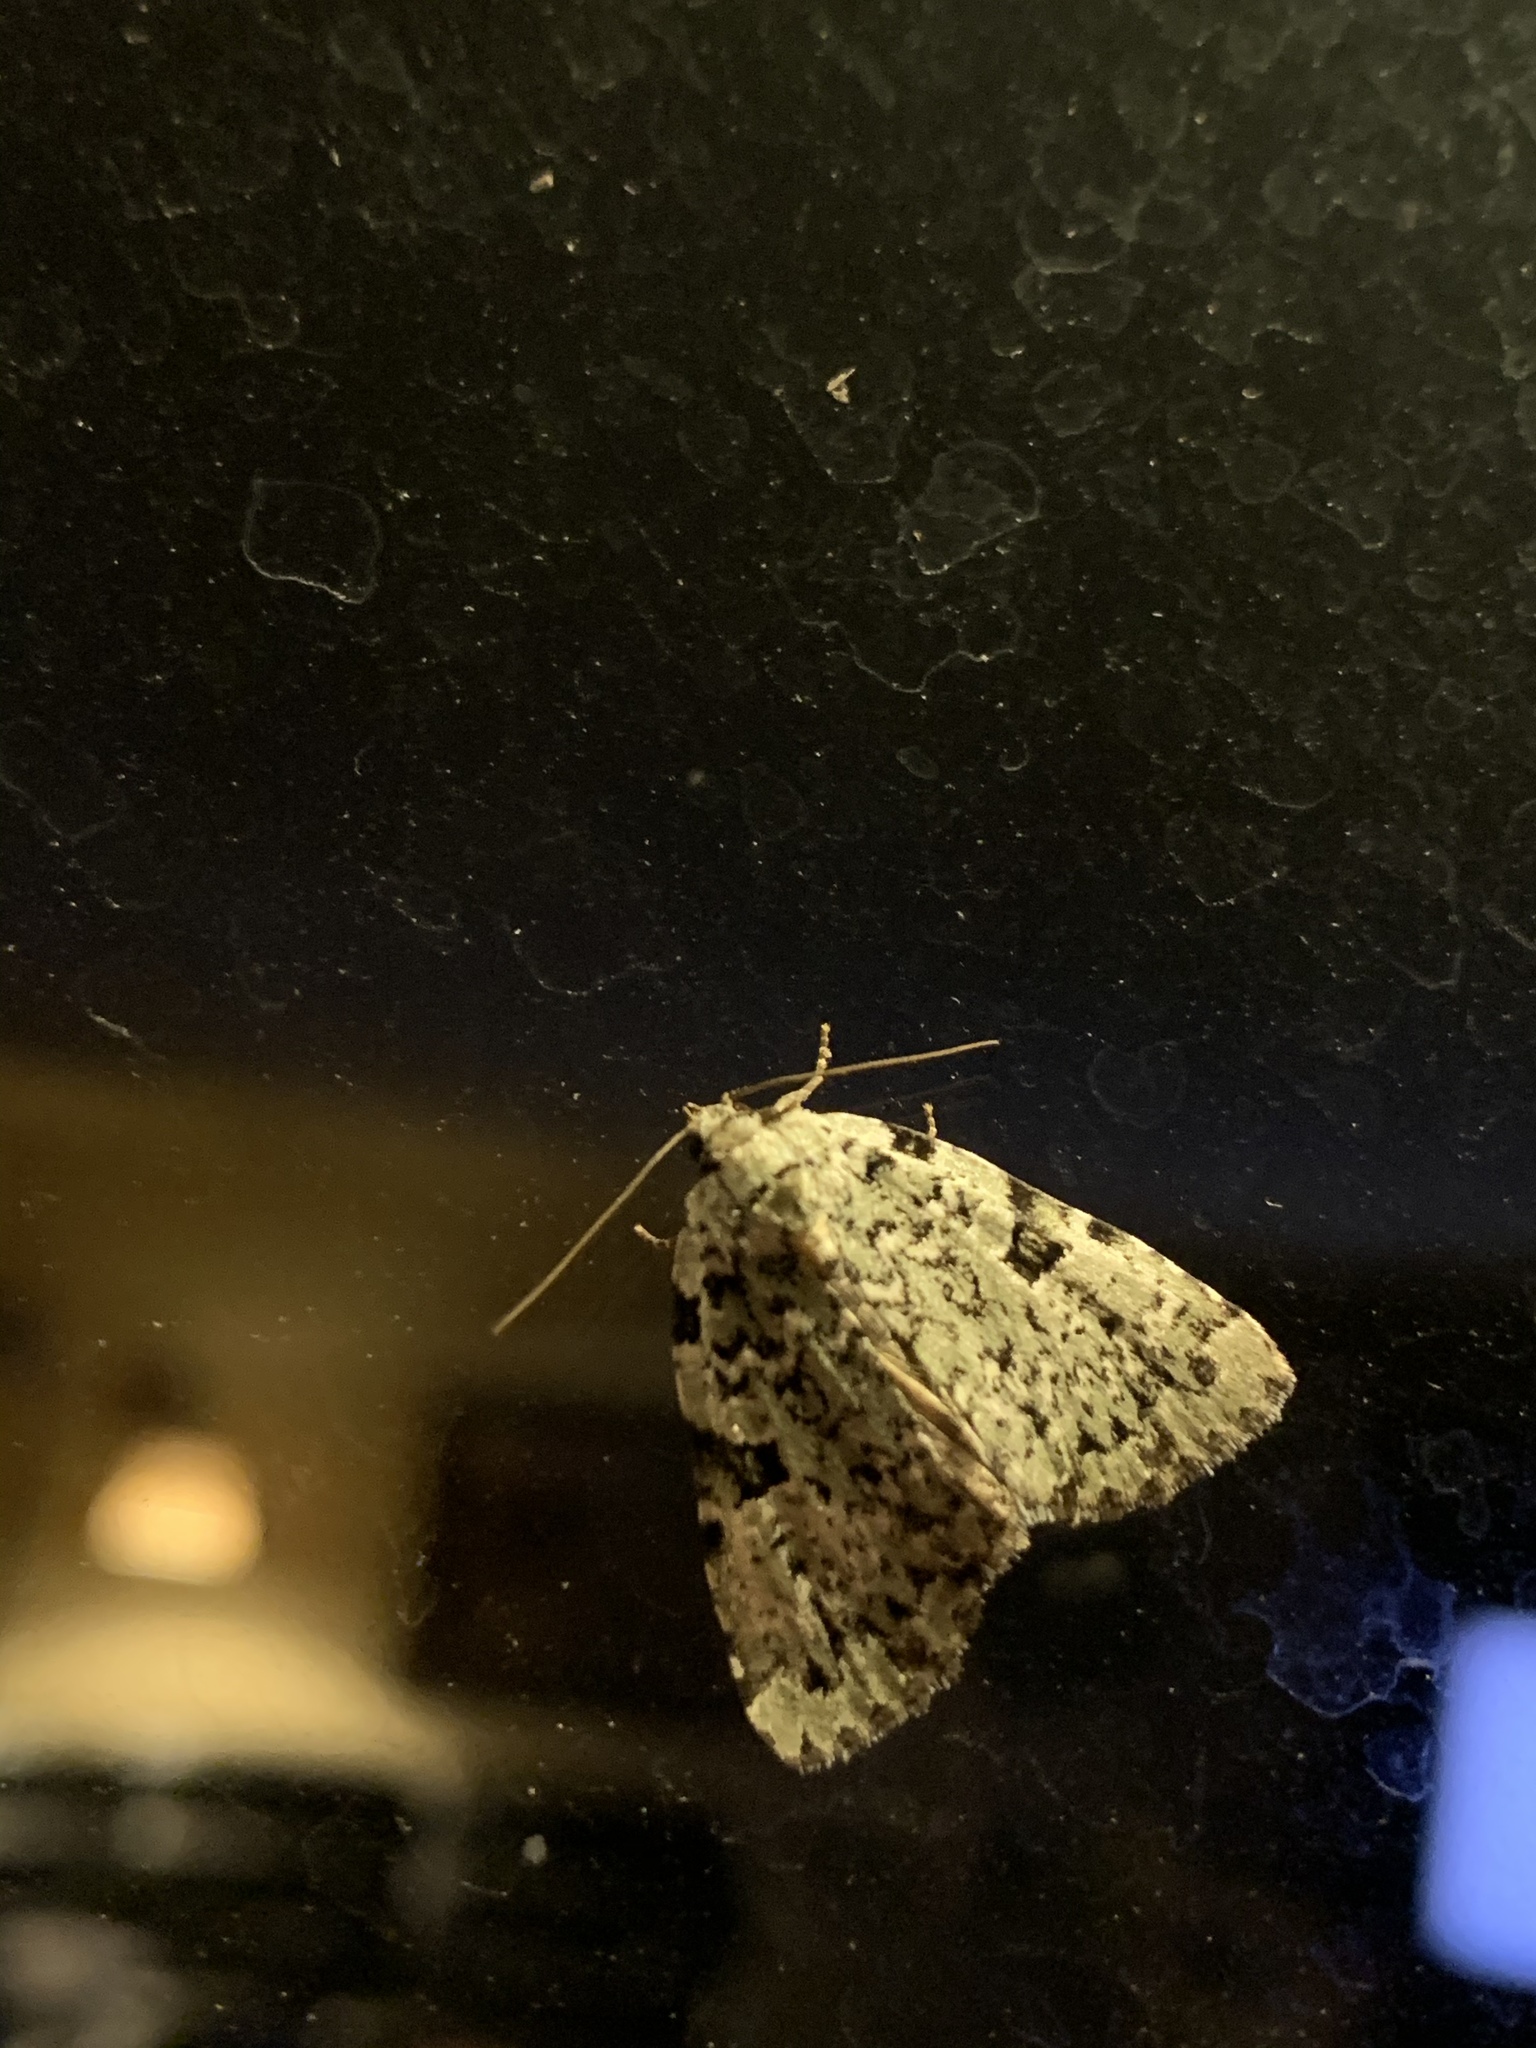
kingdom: Animalia
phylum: Arthropoda
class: Insecta
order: Lepidoptera
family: Noctuidae
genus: Leuconycta
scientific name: Leuconycta diphteroides
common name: Green leuconycta moth
